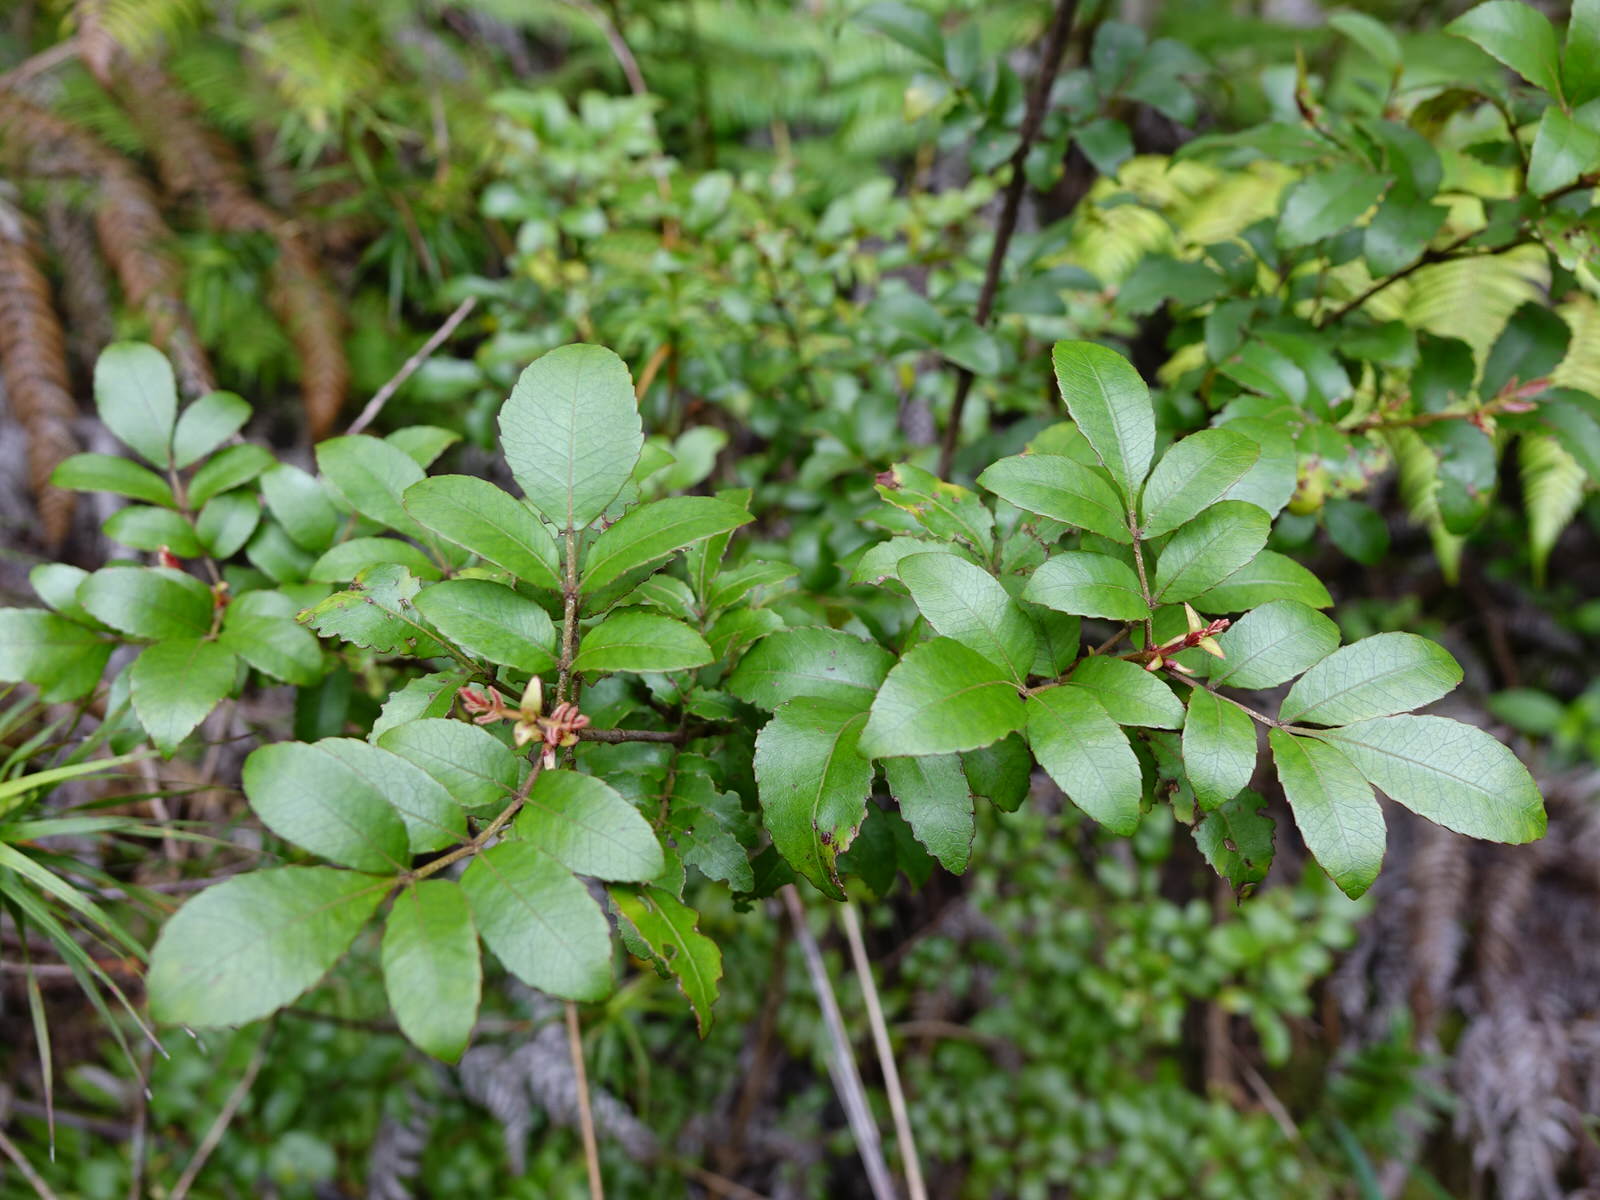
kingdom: Plantae
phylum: Tracheophyta
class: Magnoliopsida
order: Oxalidales
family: Cunoniaceae
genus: Pterophylla
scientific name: Pterophylla sylvicola
